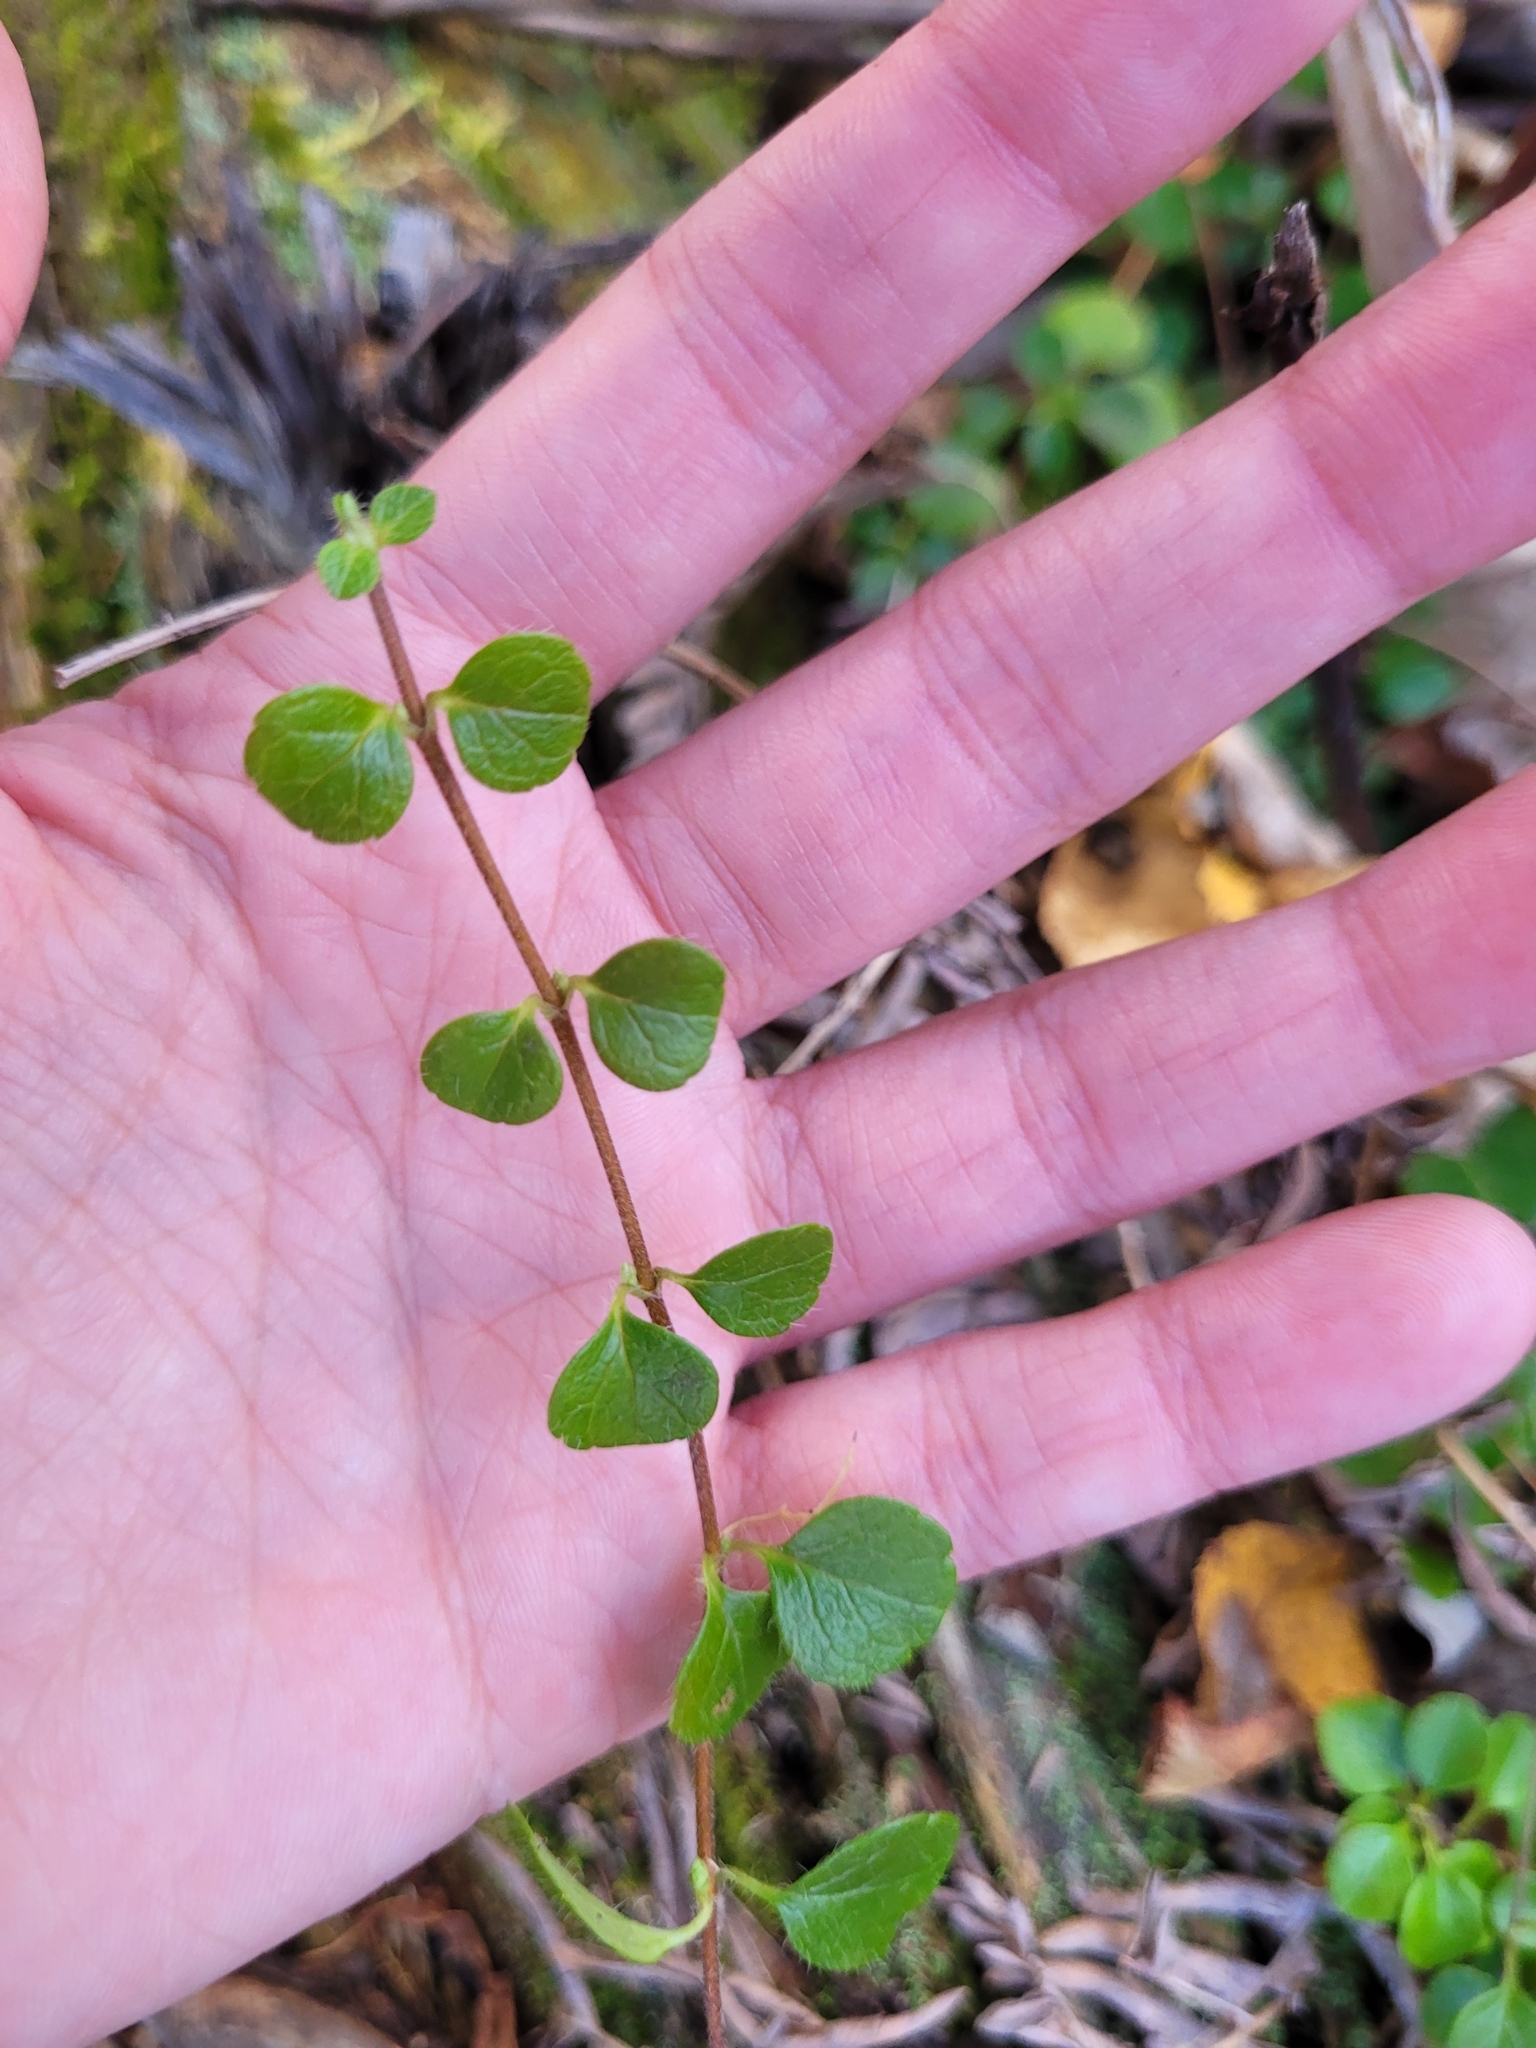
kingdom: Plantae
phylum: Tracheophyta
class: Magnoliopsida
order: Dipsacales
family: Caprifoliaceae
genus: Linnaea
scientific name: Linnaea borealis
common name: Twinflower
